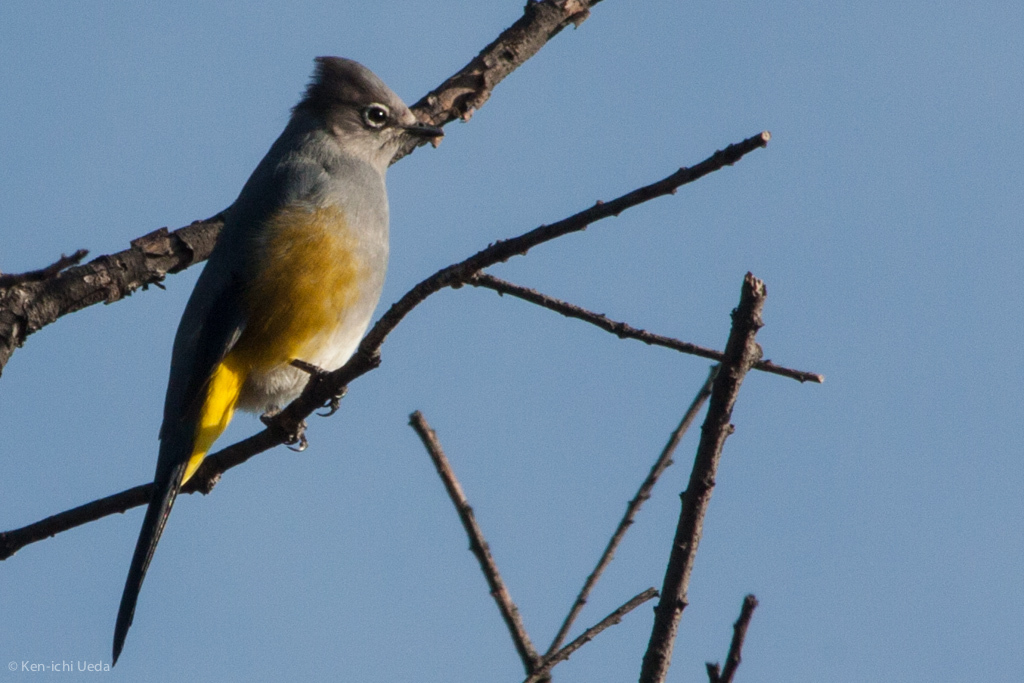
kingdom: Animalia
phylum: Chordata
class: Aves
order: Passeriformes
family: Ptilogonatidae
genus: Ptilogonys
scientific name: Ptilogonys cinereus
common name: Gray silky-flycatcher
